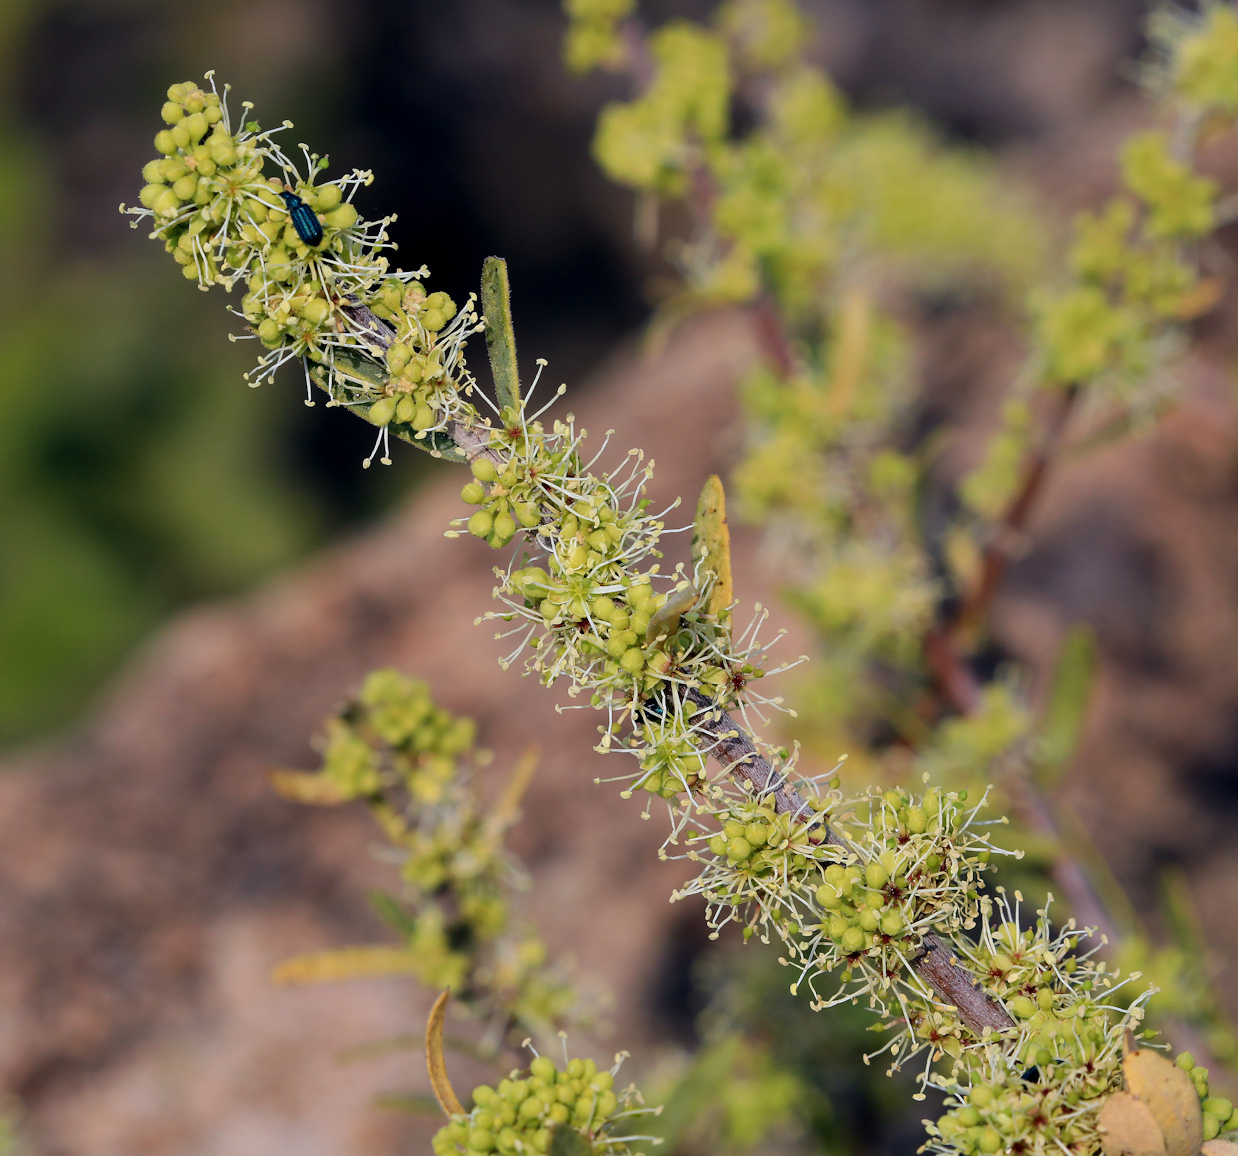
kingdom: Plantae
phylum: Tracheophyta
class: Magnoliopsida
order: Brassicales
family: Capparaceae
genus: Boscia
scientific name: Boscia albitrunca
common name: Caper bush
